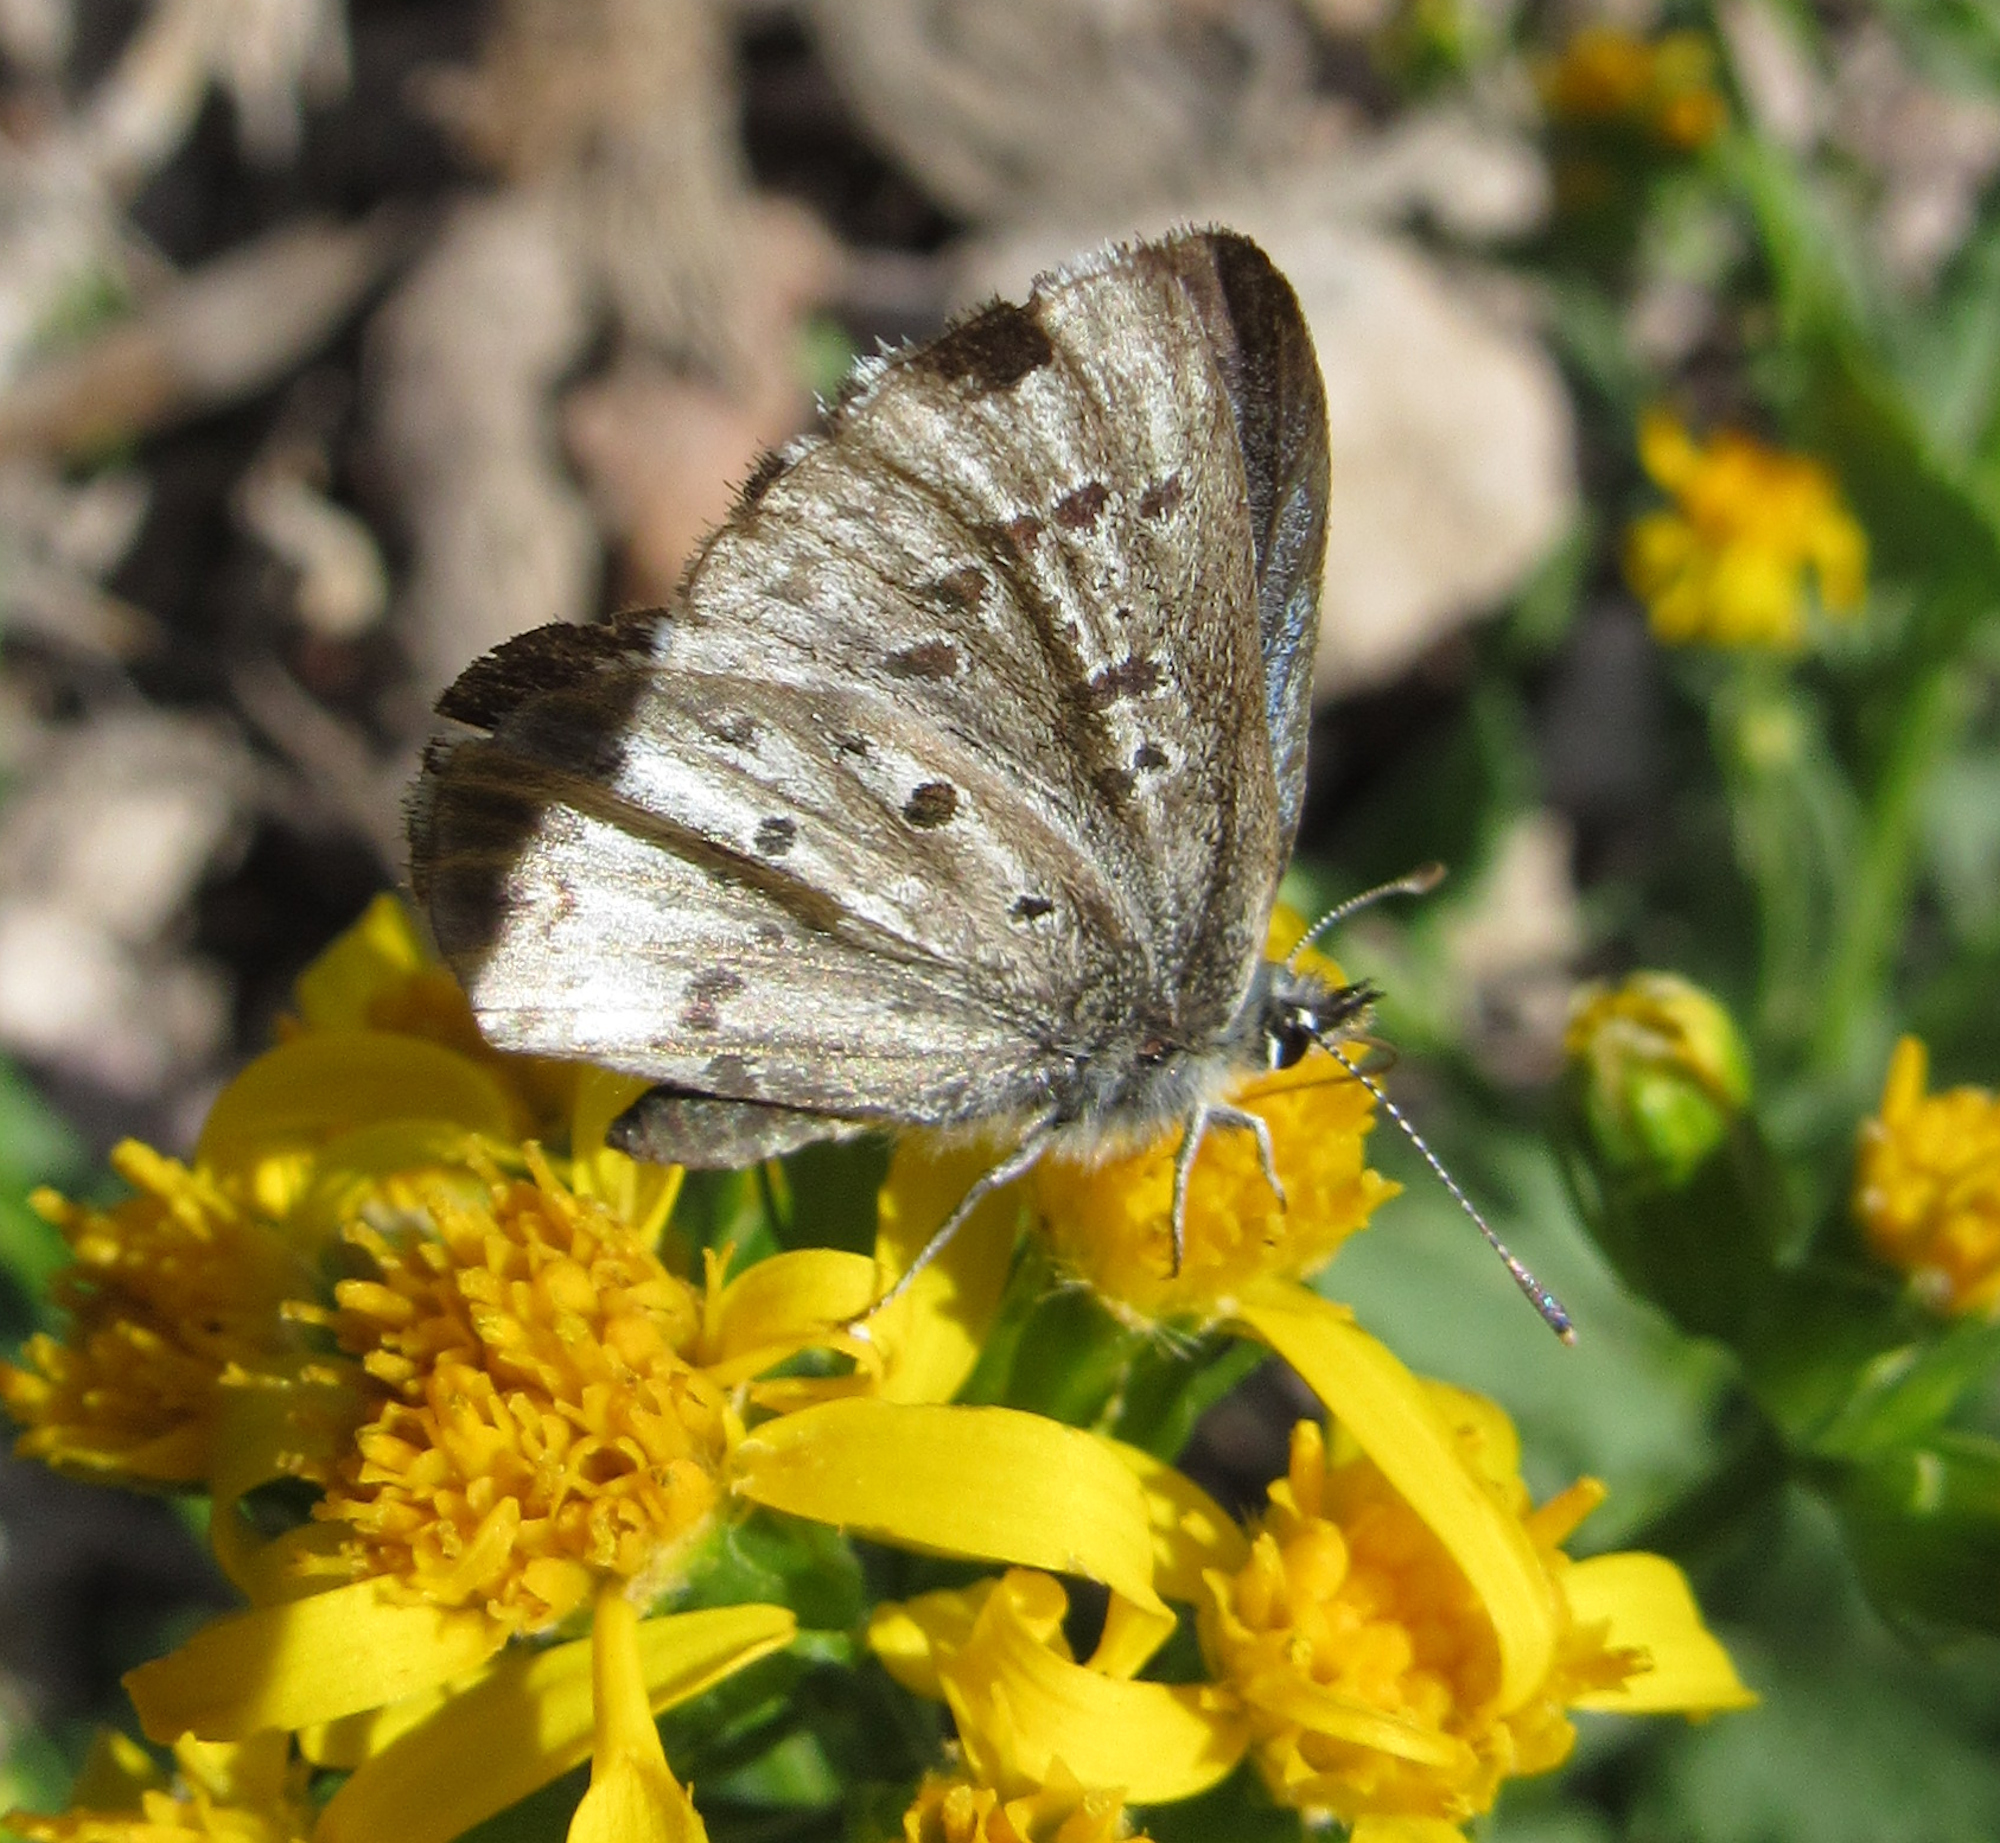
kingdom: Animalia
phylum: Arthropoda
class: Insecta
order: Lepidoptera
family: Lycaenidae
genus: Glaucopsyche
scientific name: Glaucopsyche piasus
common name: Arrowhead blue
